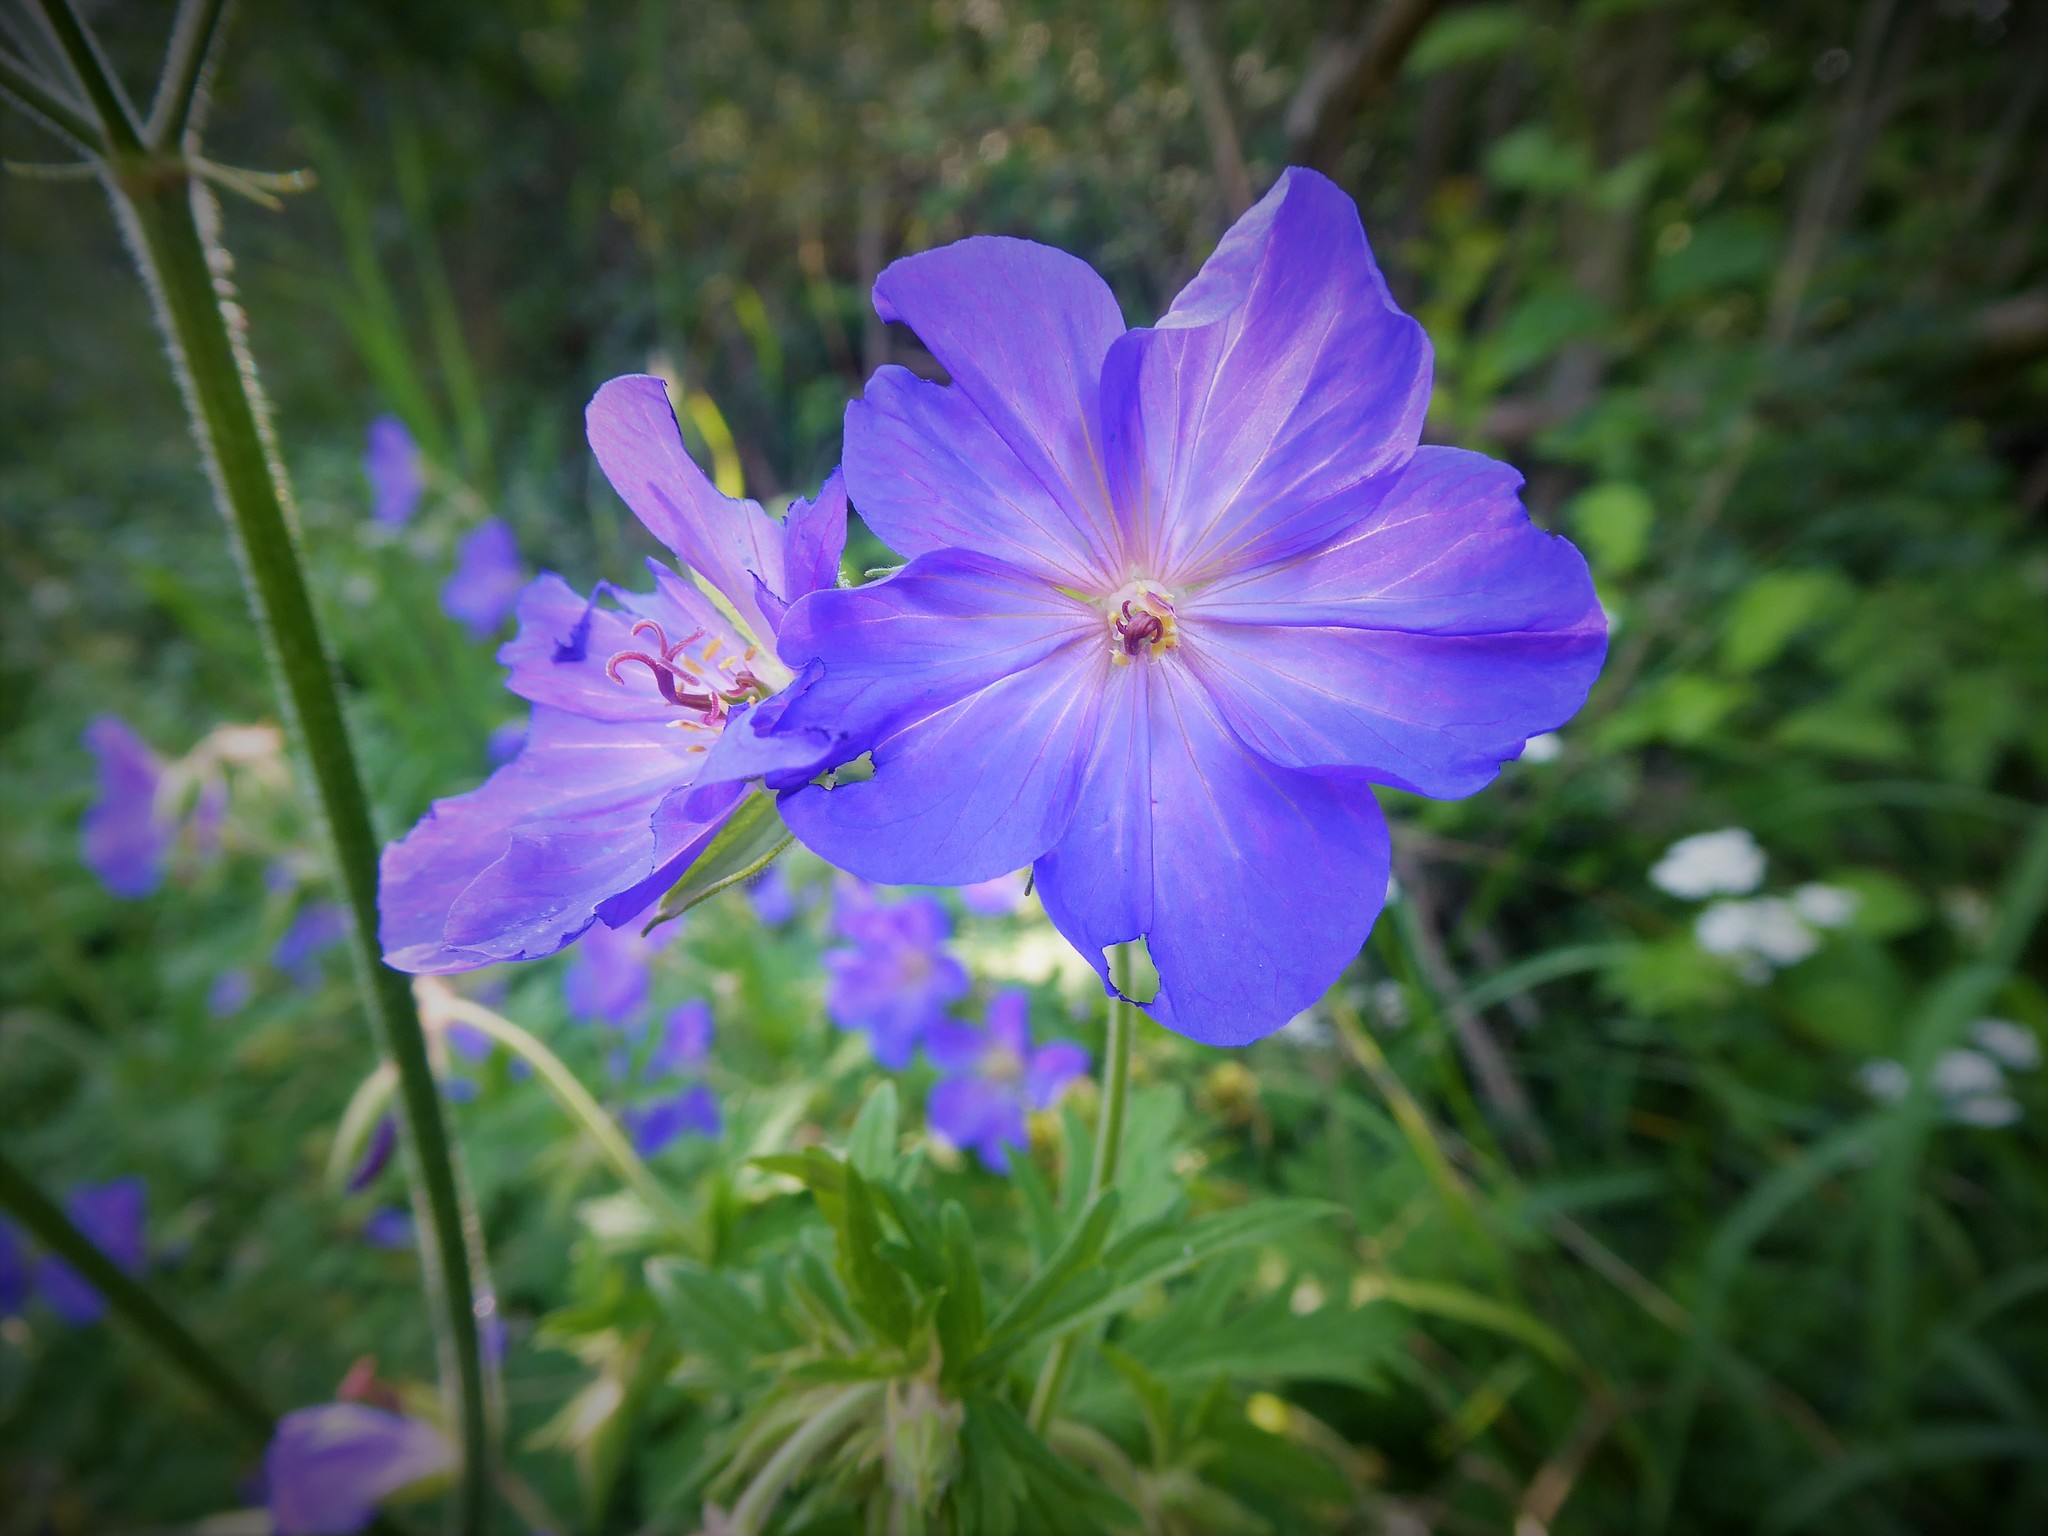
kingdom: Plantae
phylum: Tracheophyta
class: Magnoliopsida
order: Geraniales
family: Geraniaceae
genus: Geranium
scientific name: Geranium pratense
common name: Meadow crane's-bill
